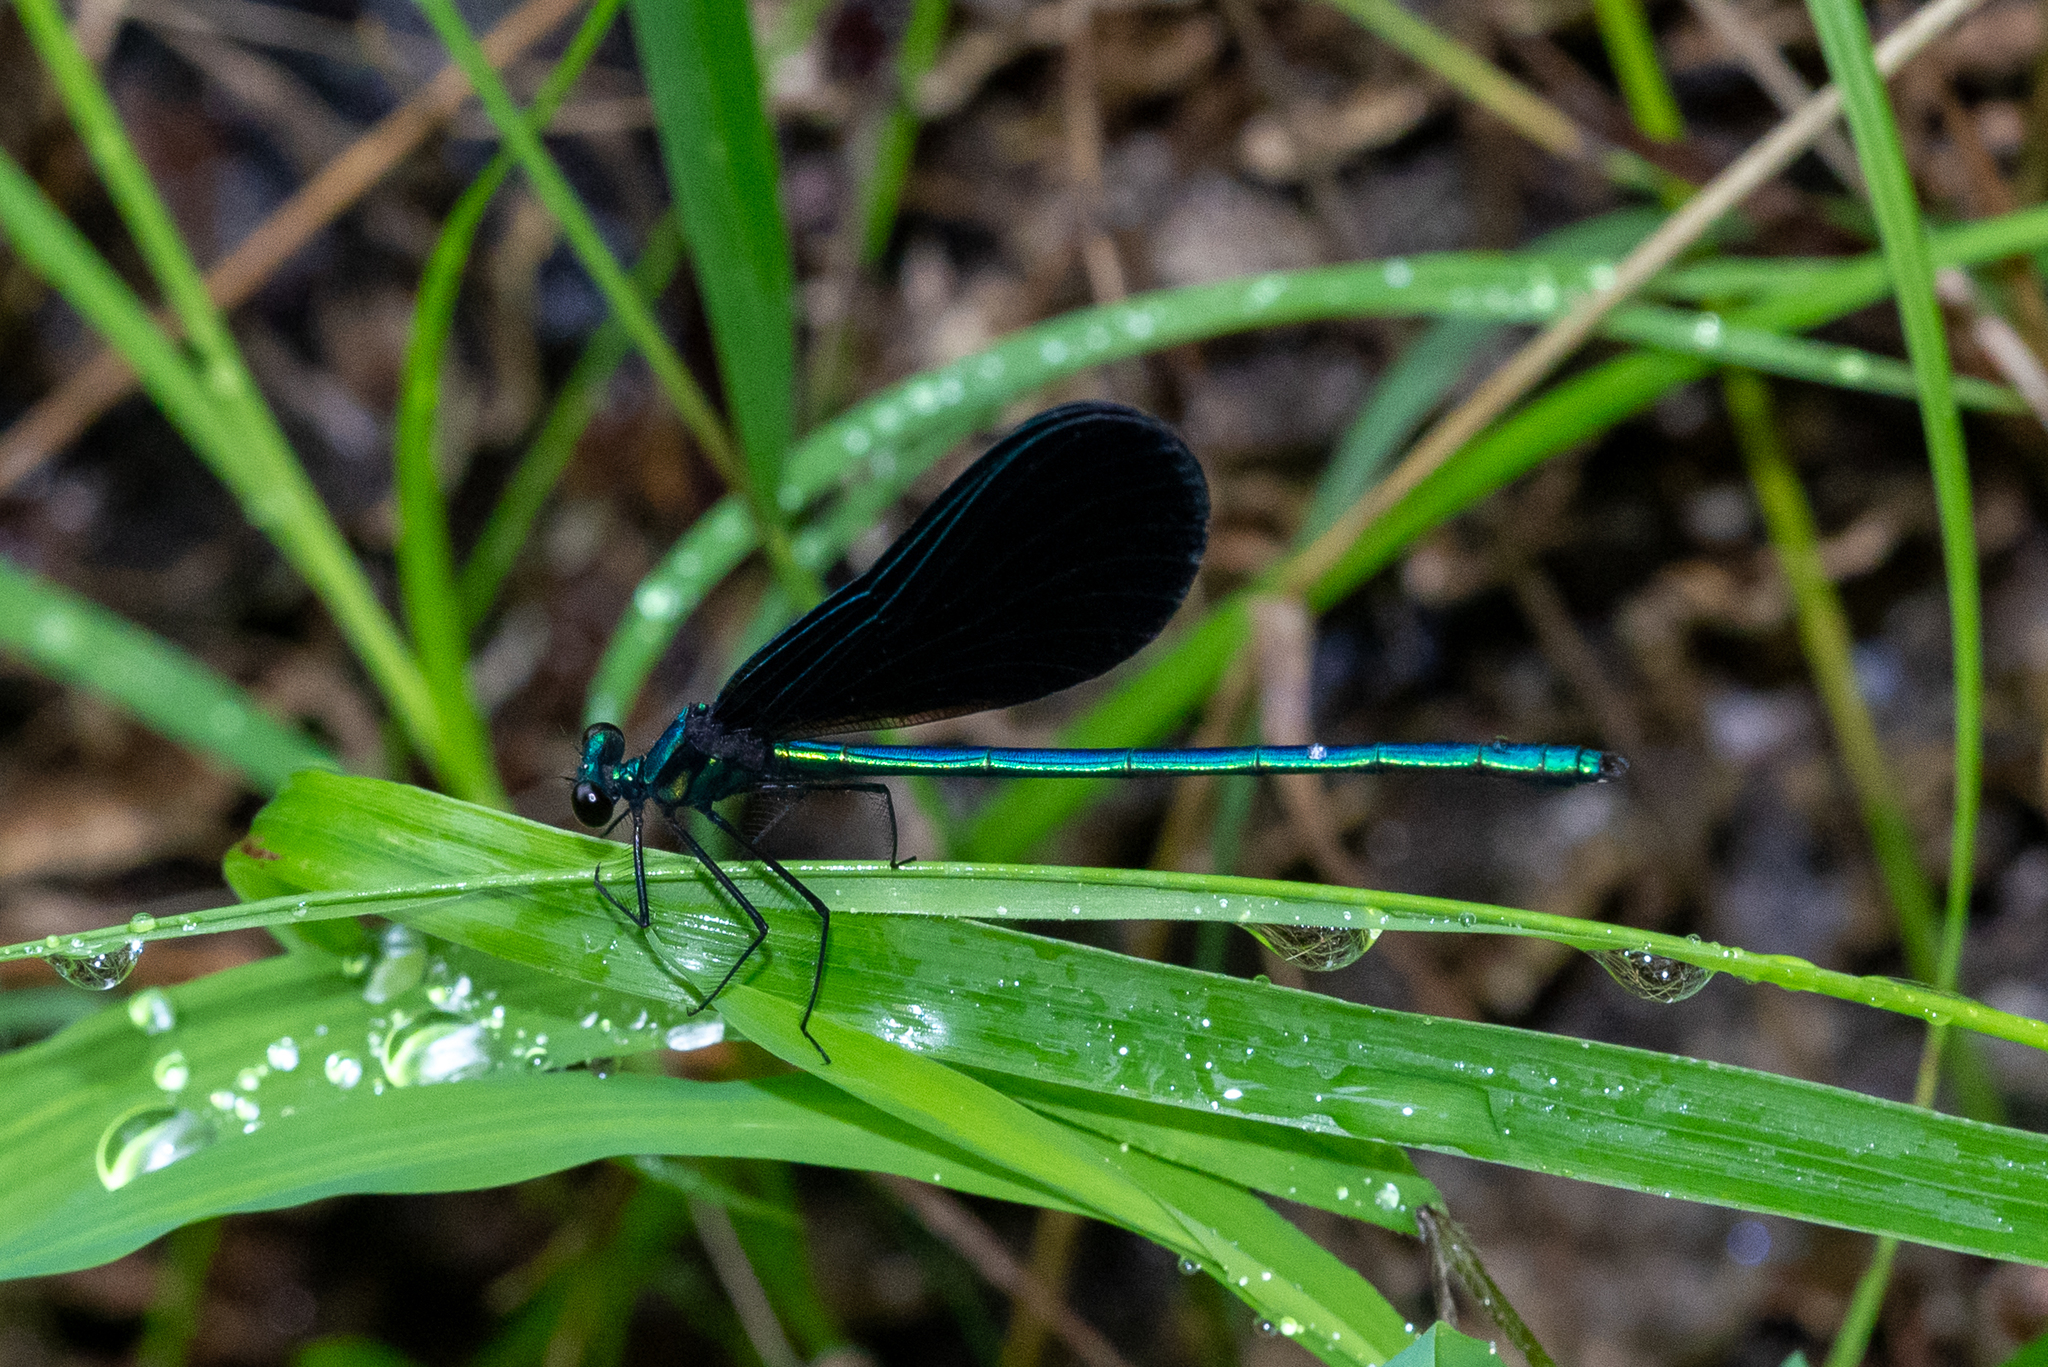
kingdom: Animalia
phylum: Arthropoda
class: Insecta
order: Odonata
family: Calopterygidae
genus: Calopteryx
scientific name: Calopteryx maculata
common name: Ebony jewelwing
